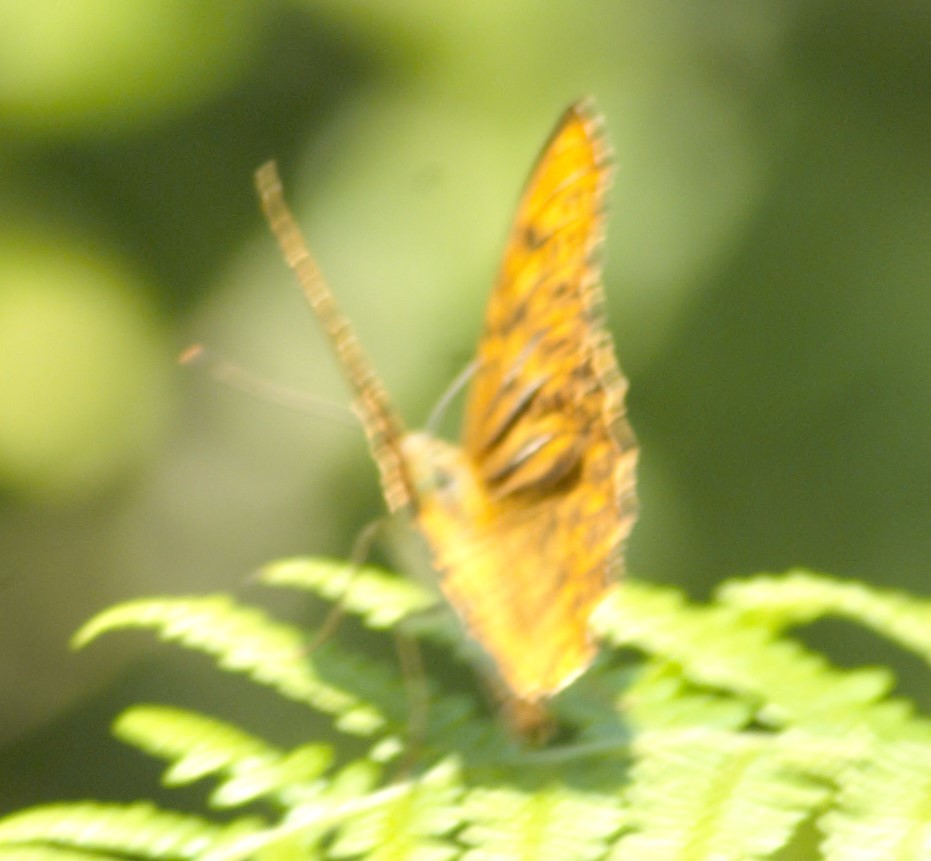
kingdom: Animalia
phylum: Arthropoda
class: Insecta
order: Lepidoptera
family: Nymphalidae
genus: Argynnis
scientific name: Argynnis paphia
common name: Silver-washed fritillary
